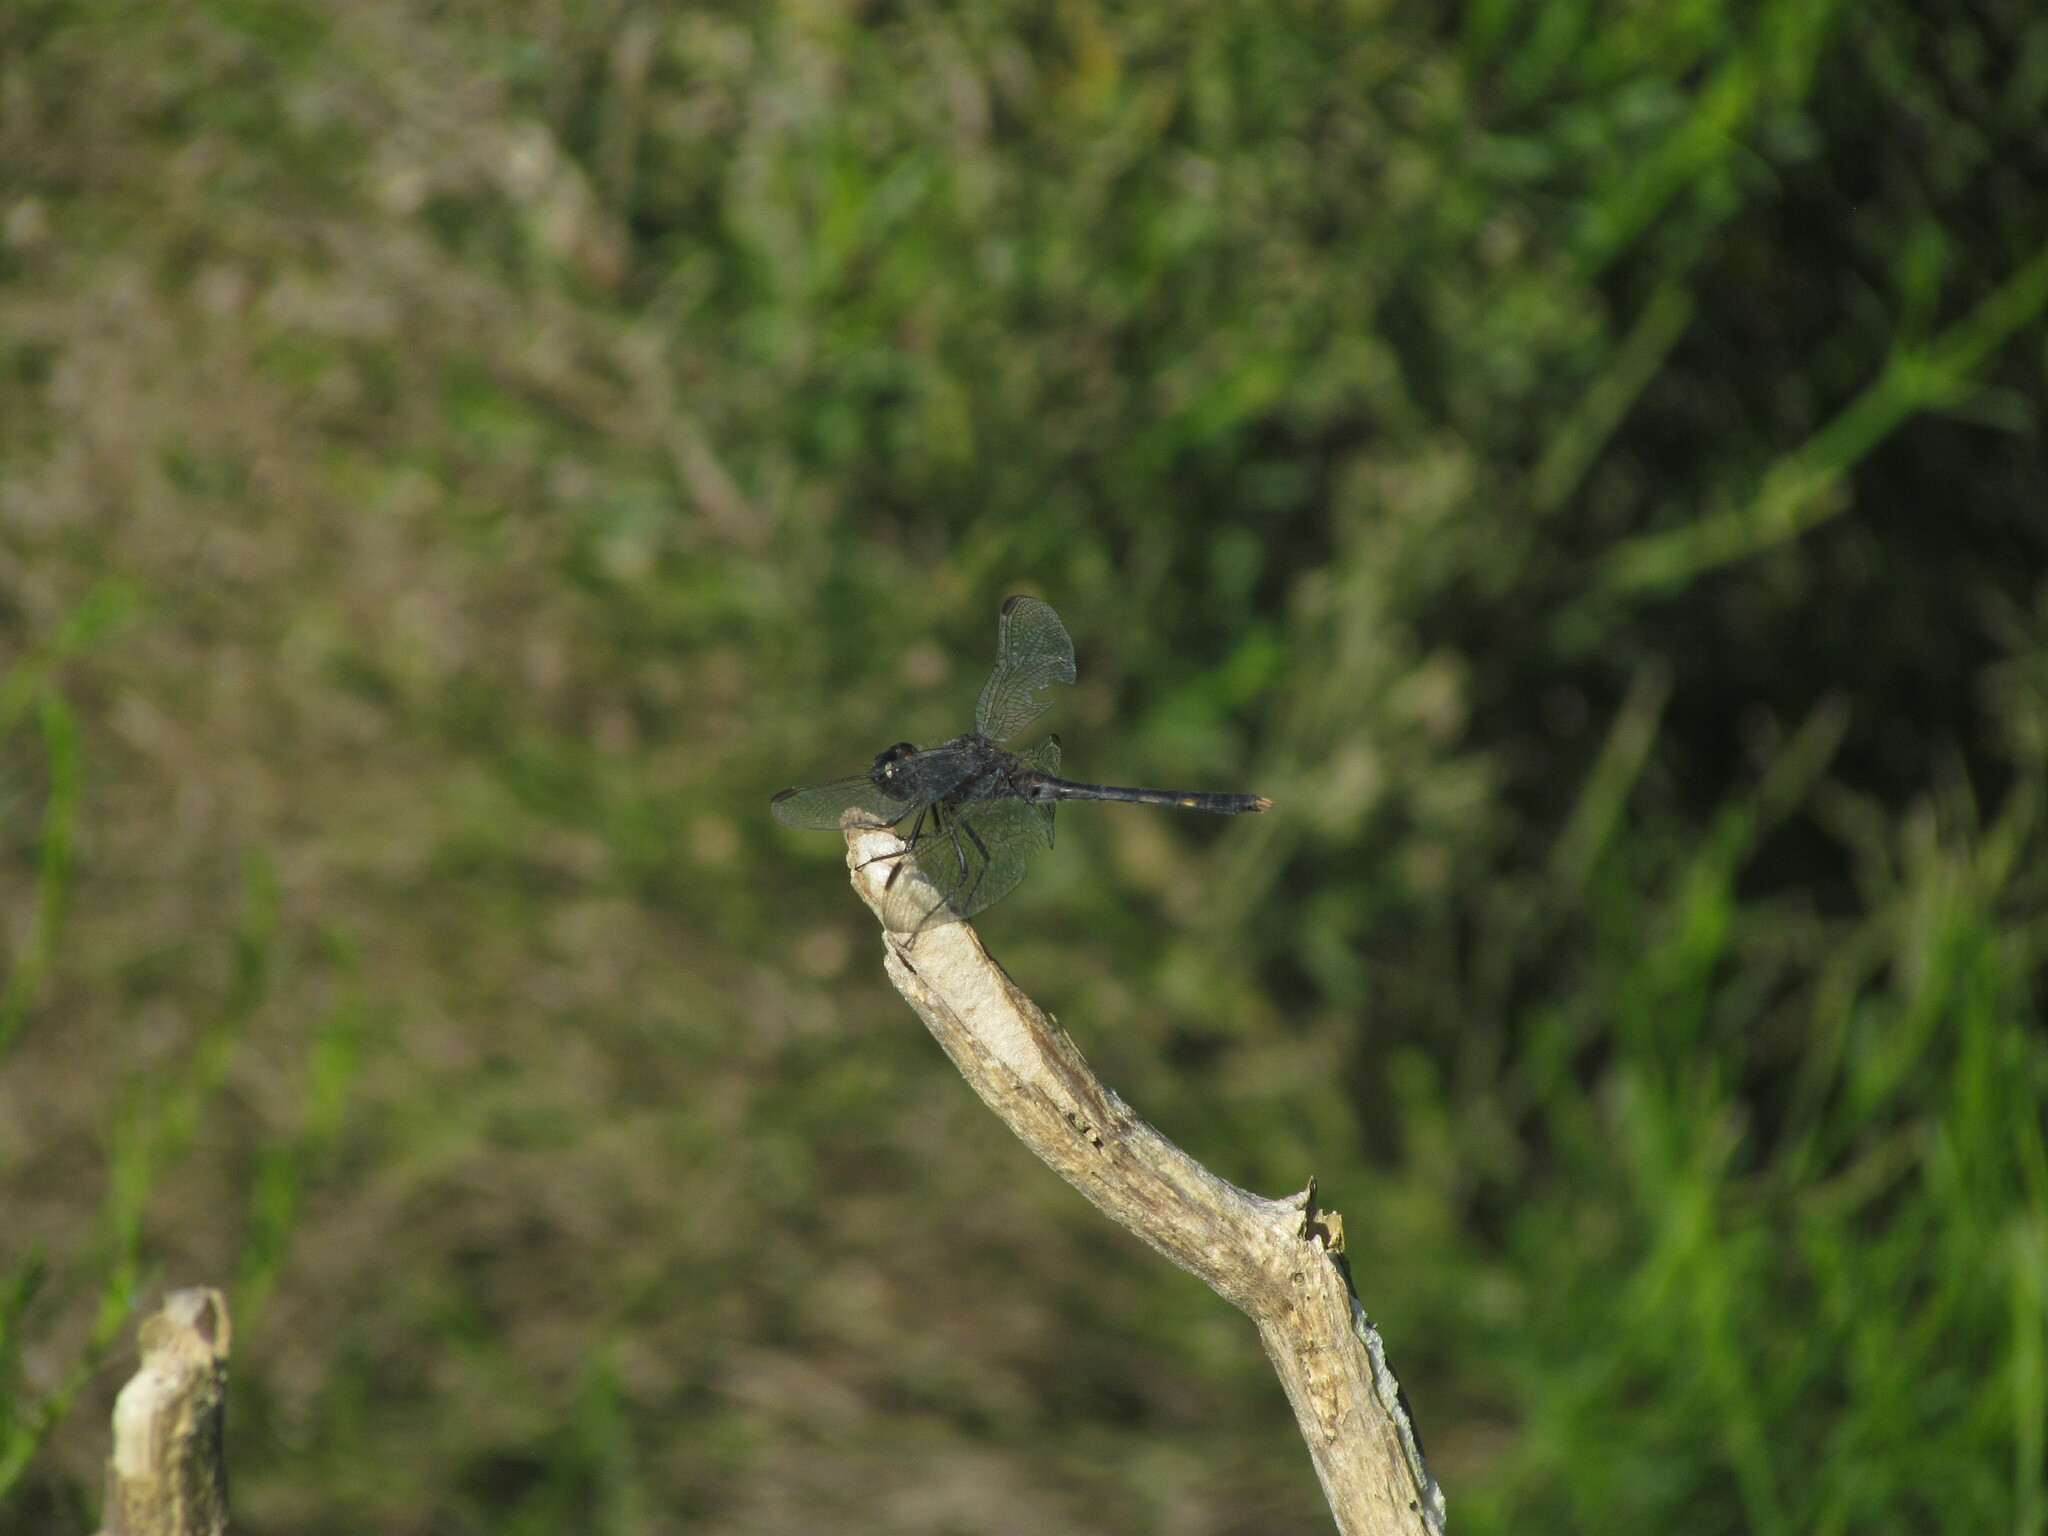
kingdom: Animalia
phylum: Arthropoda
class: Insecta
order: Odonata
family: Libellulidae
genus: Erythrodiplax
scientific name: Erythrodiplax nigricans
